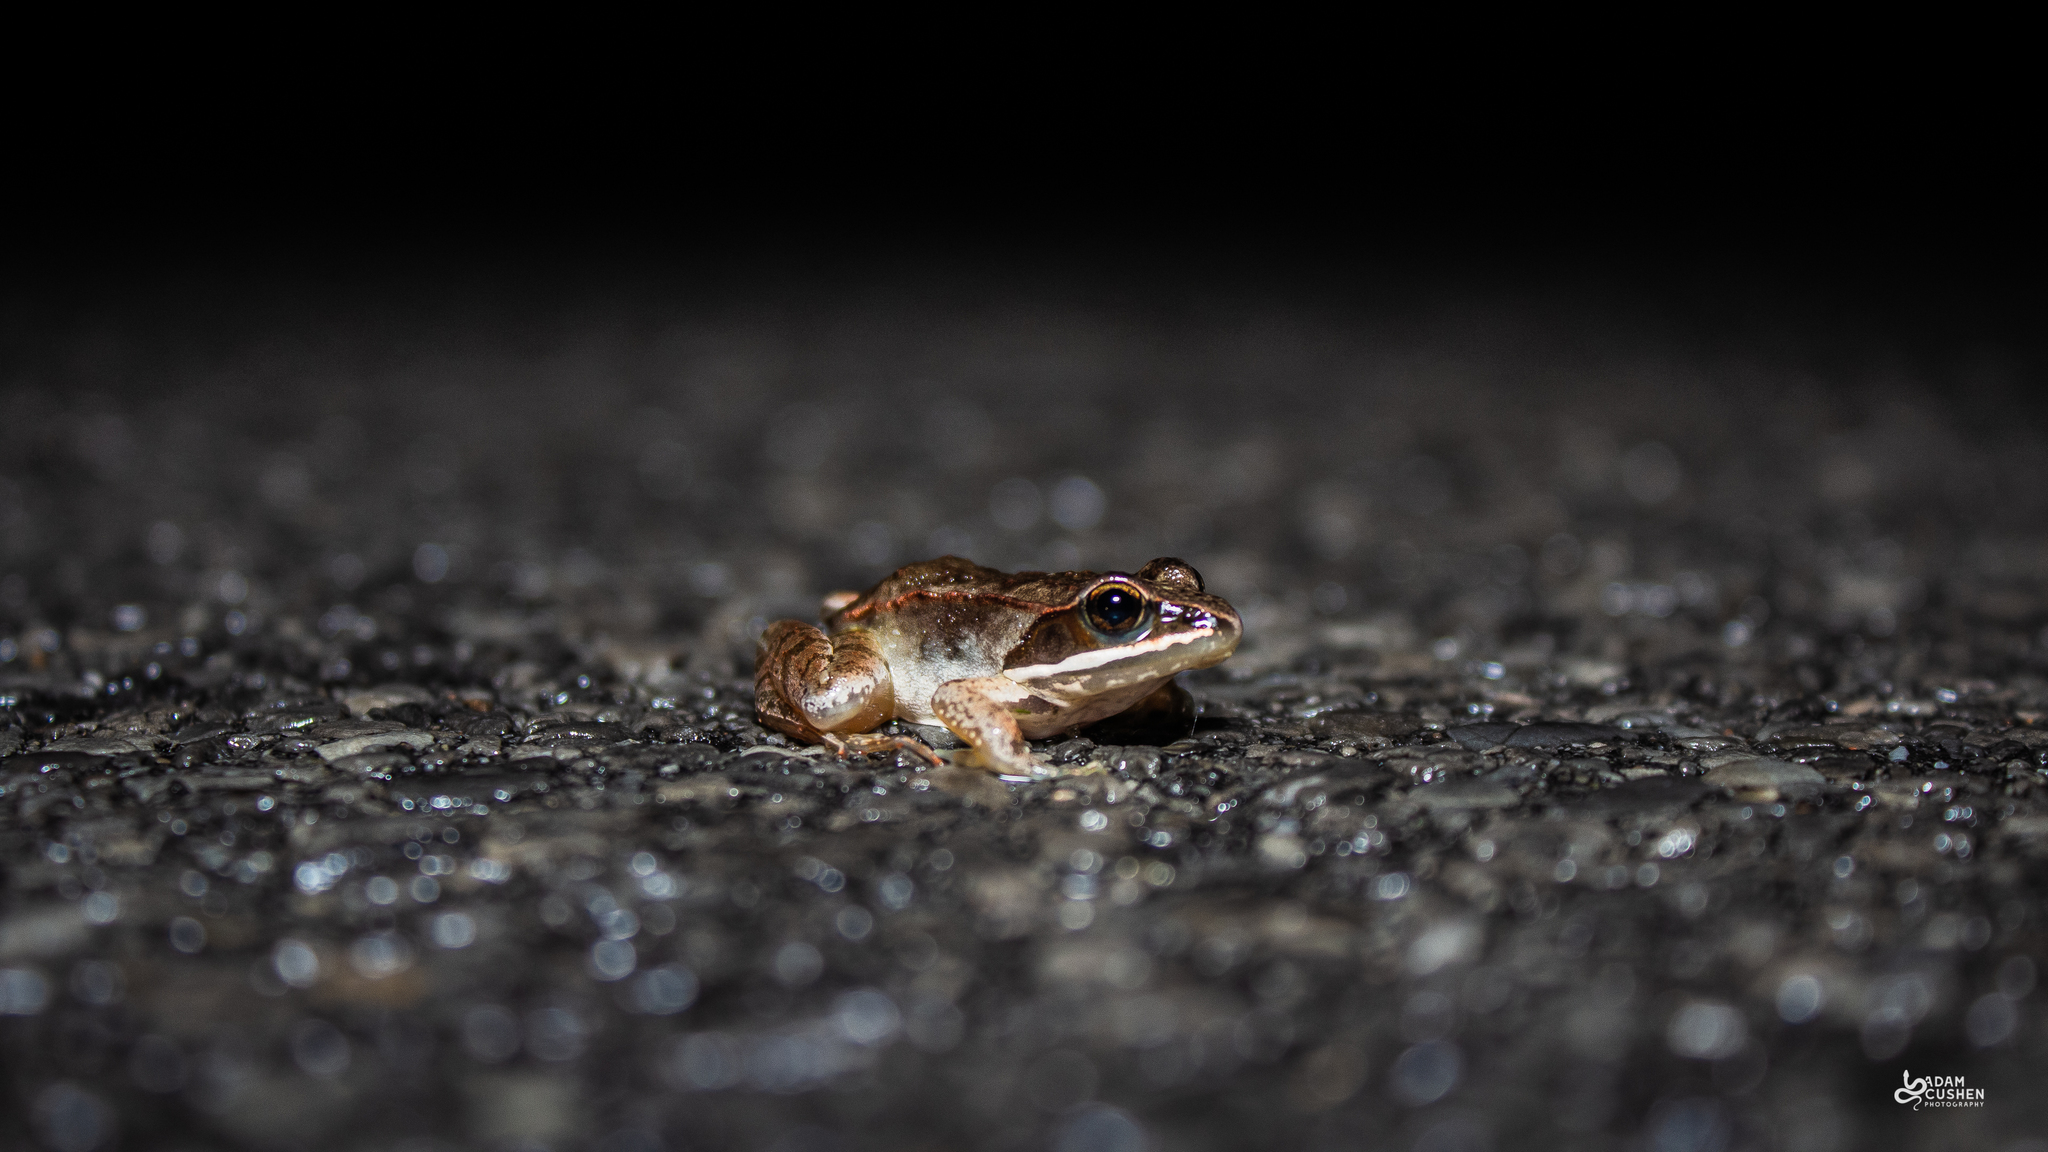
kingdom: Animalia
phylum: Chordata
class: Amphibia
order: Anura
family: Ranidae
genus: Lithobates
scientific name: Lithobates sylvaticus
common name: Wood frog
